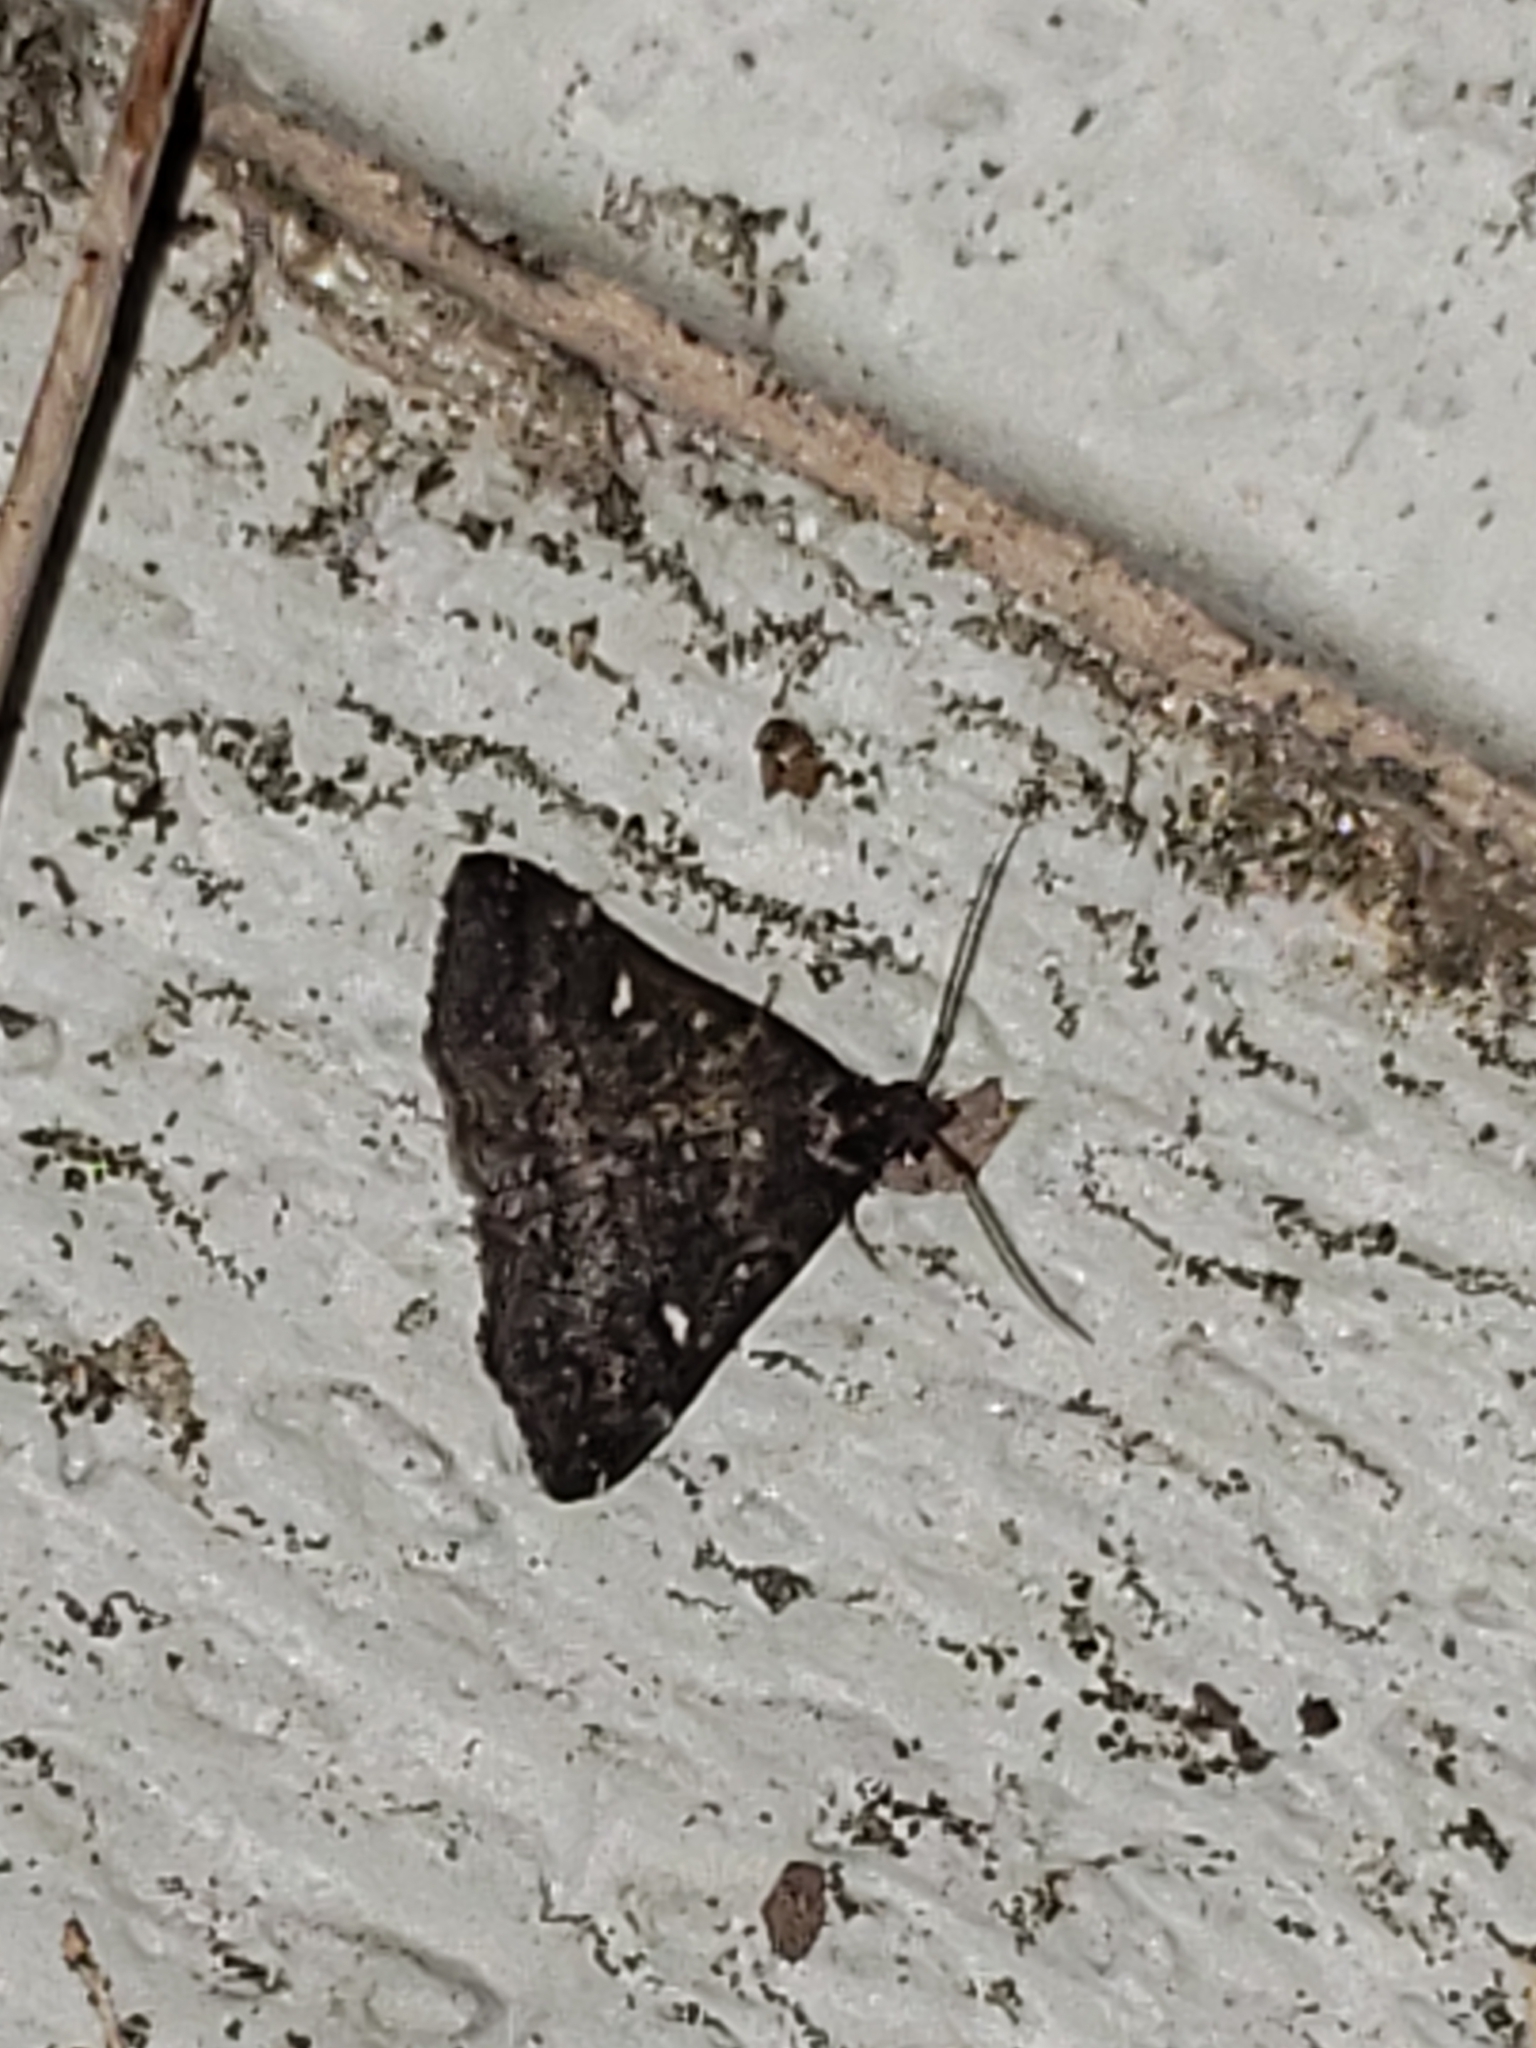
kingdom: Animalia
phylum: Arthropoda
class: Insecta
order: Lepidoptera
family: Erebidae
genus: Tetanolita
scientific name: Tetanolita mynesalis
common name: Smoky tetanolita moth
